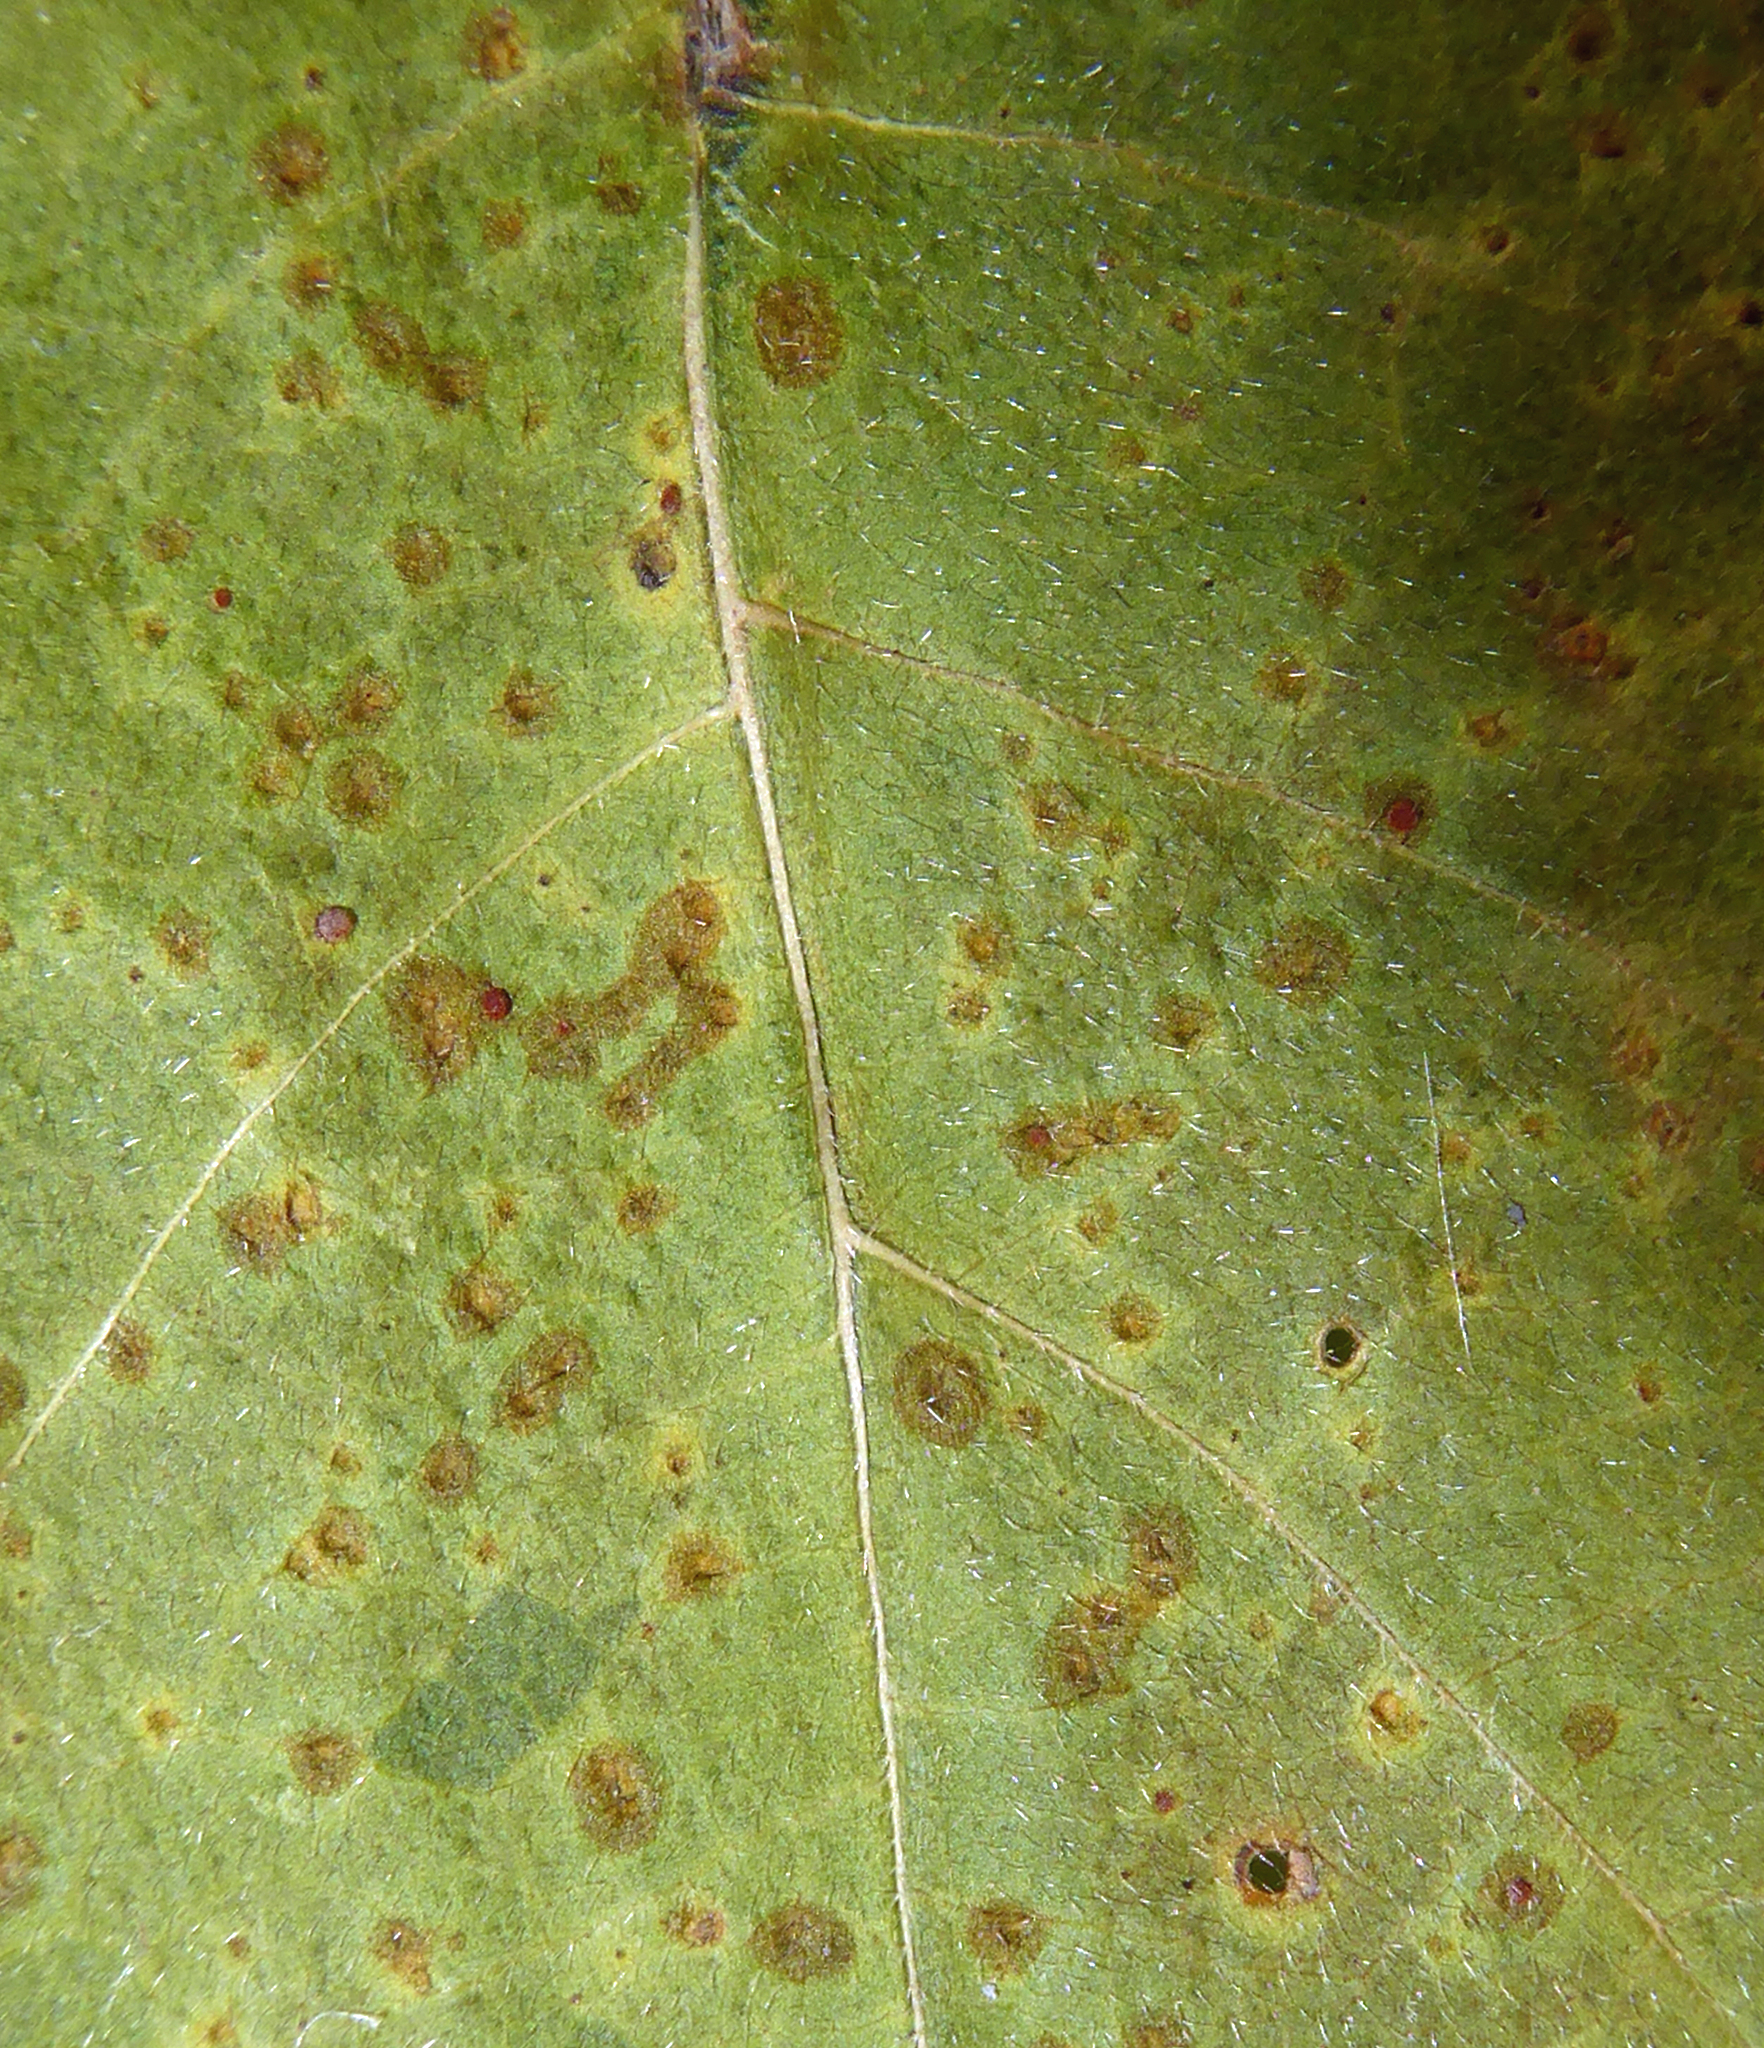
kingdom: Fungi
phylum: Basidiomycota
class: Pucciniomycetes
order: Pucciniales
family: Pucciniaceae
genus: Puccinia
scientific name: Puccinia malvacearum
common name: Hollyhock rust
